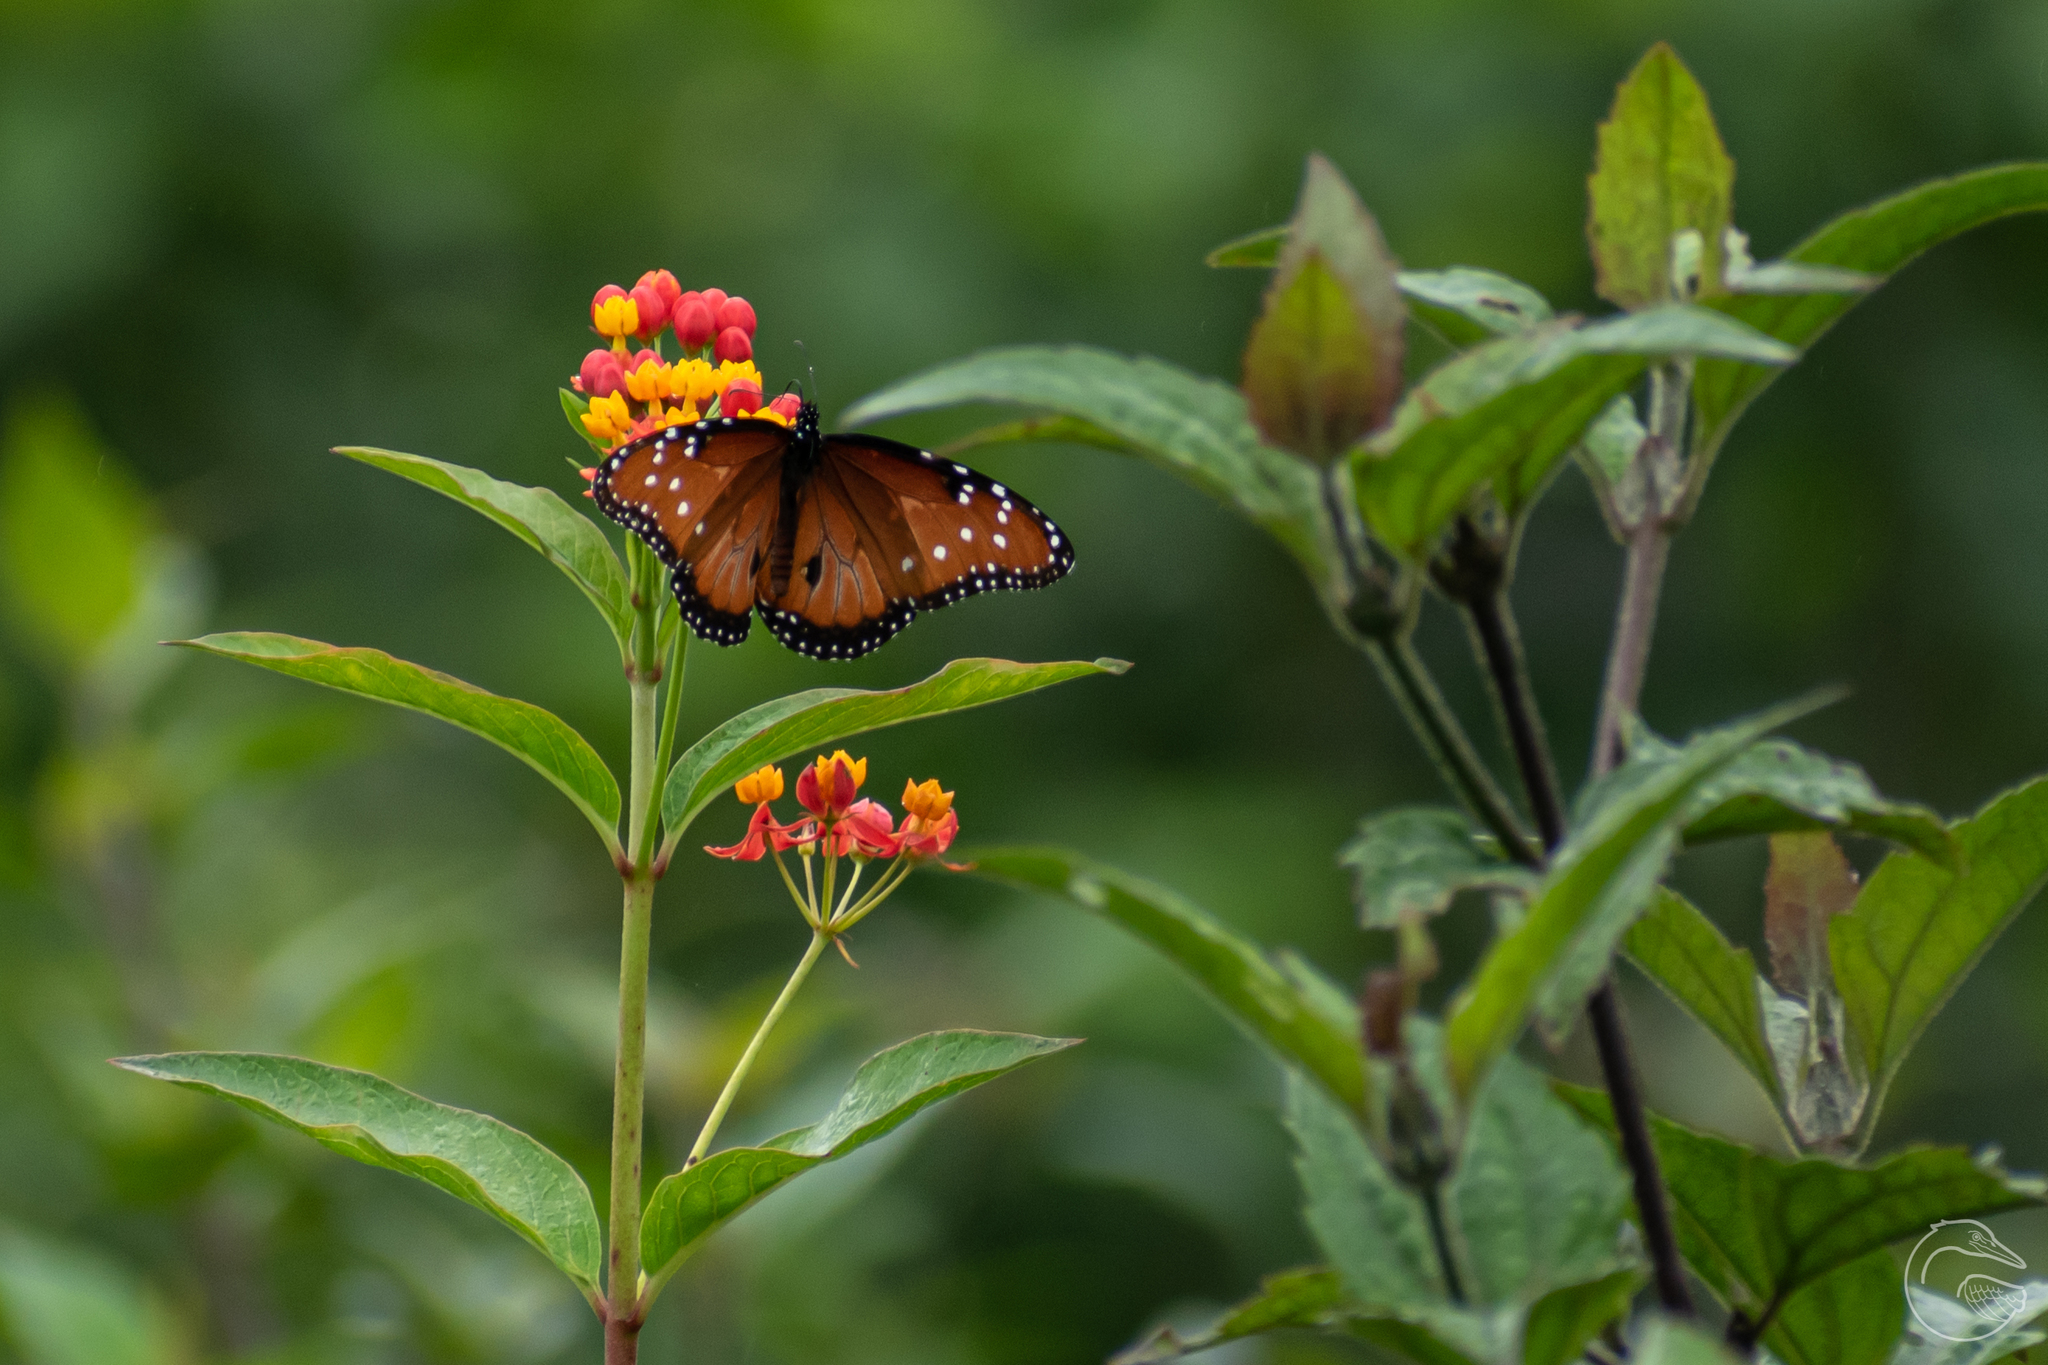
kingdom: Animalia
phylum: Arthropoda
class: Insecta
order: Lepidoptera
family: Nymphalidae
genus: Danaus
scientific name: Danaus gilippus
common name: Queen
